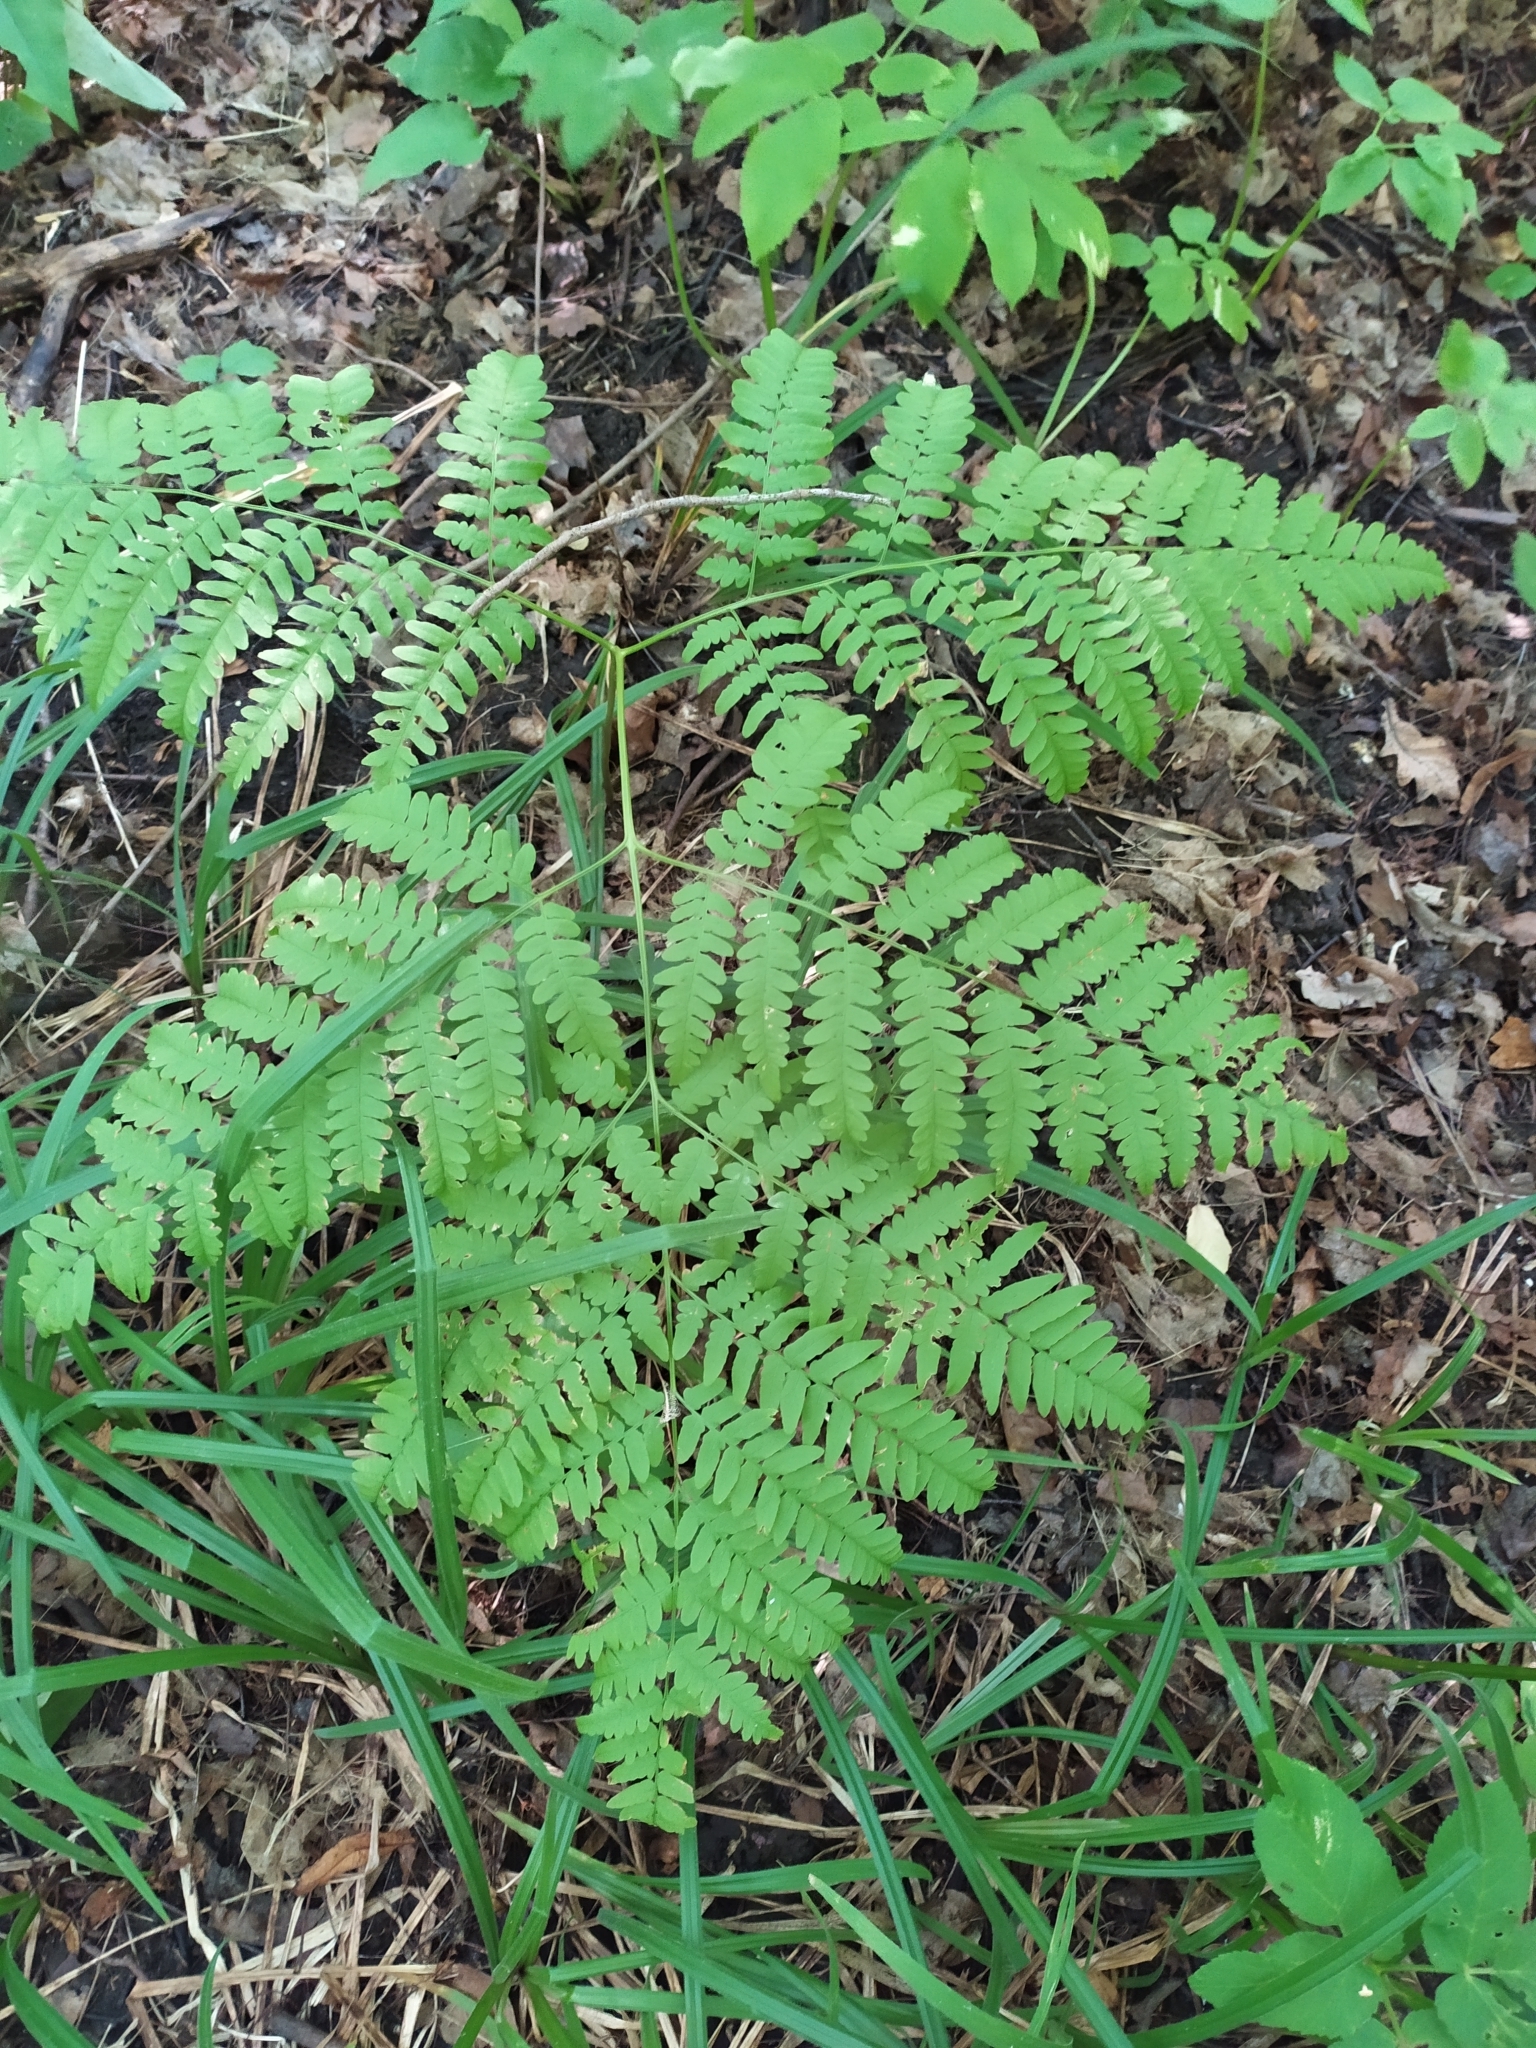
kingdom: Plantae
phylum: Tracheophyta
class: Polypodiopsida
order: Polypodiales
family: Dennstaedtiaceae
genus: Pteridium
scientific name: Pteridium aquilinum
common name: Bracken
